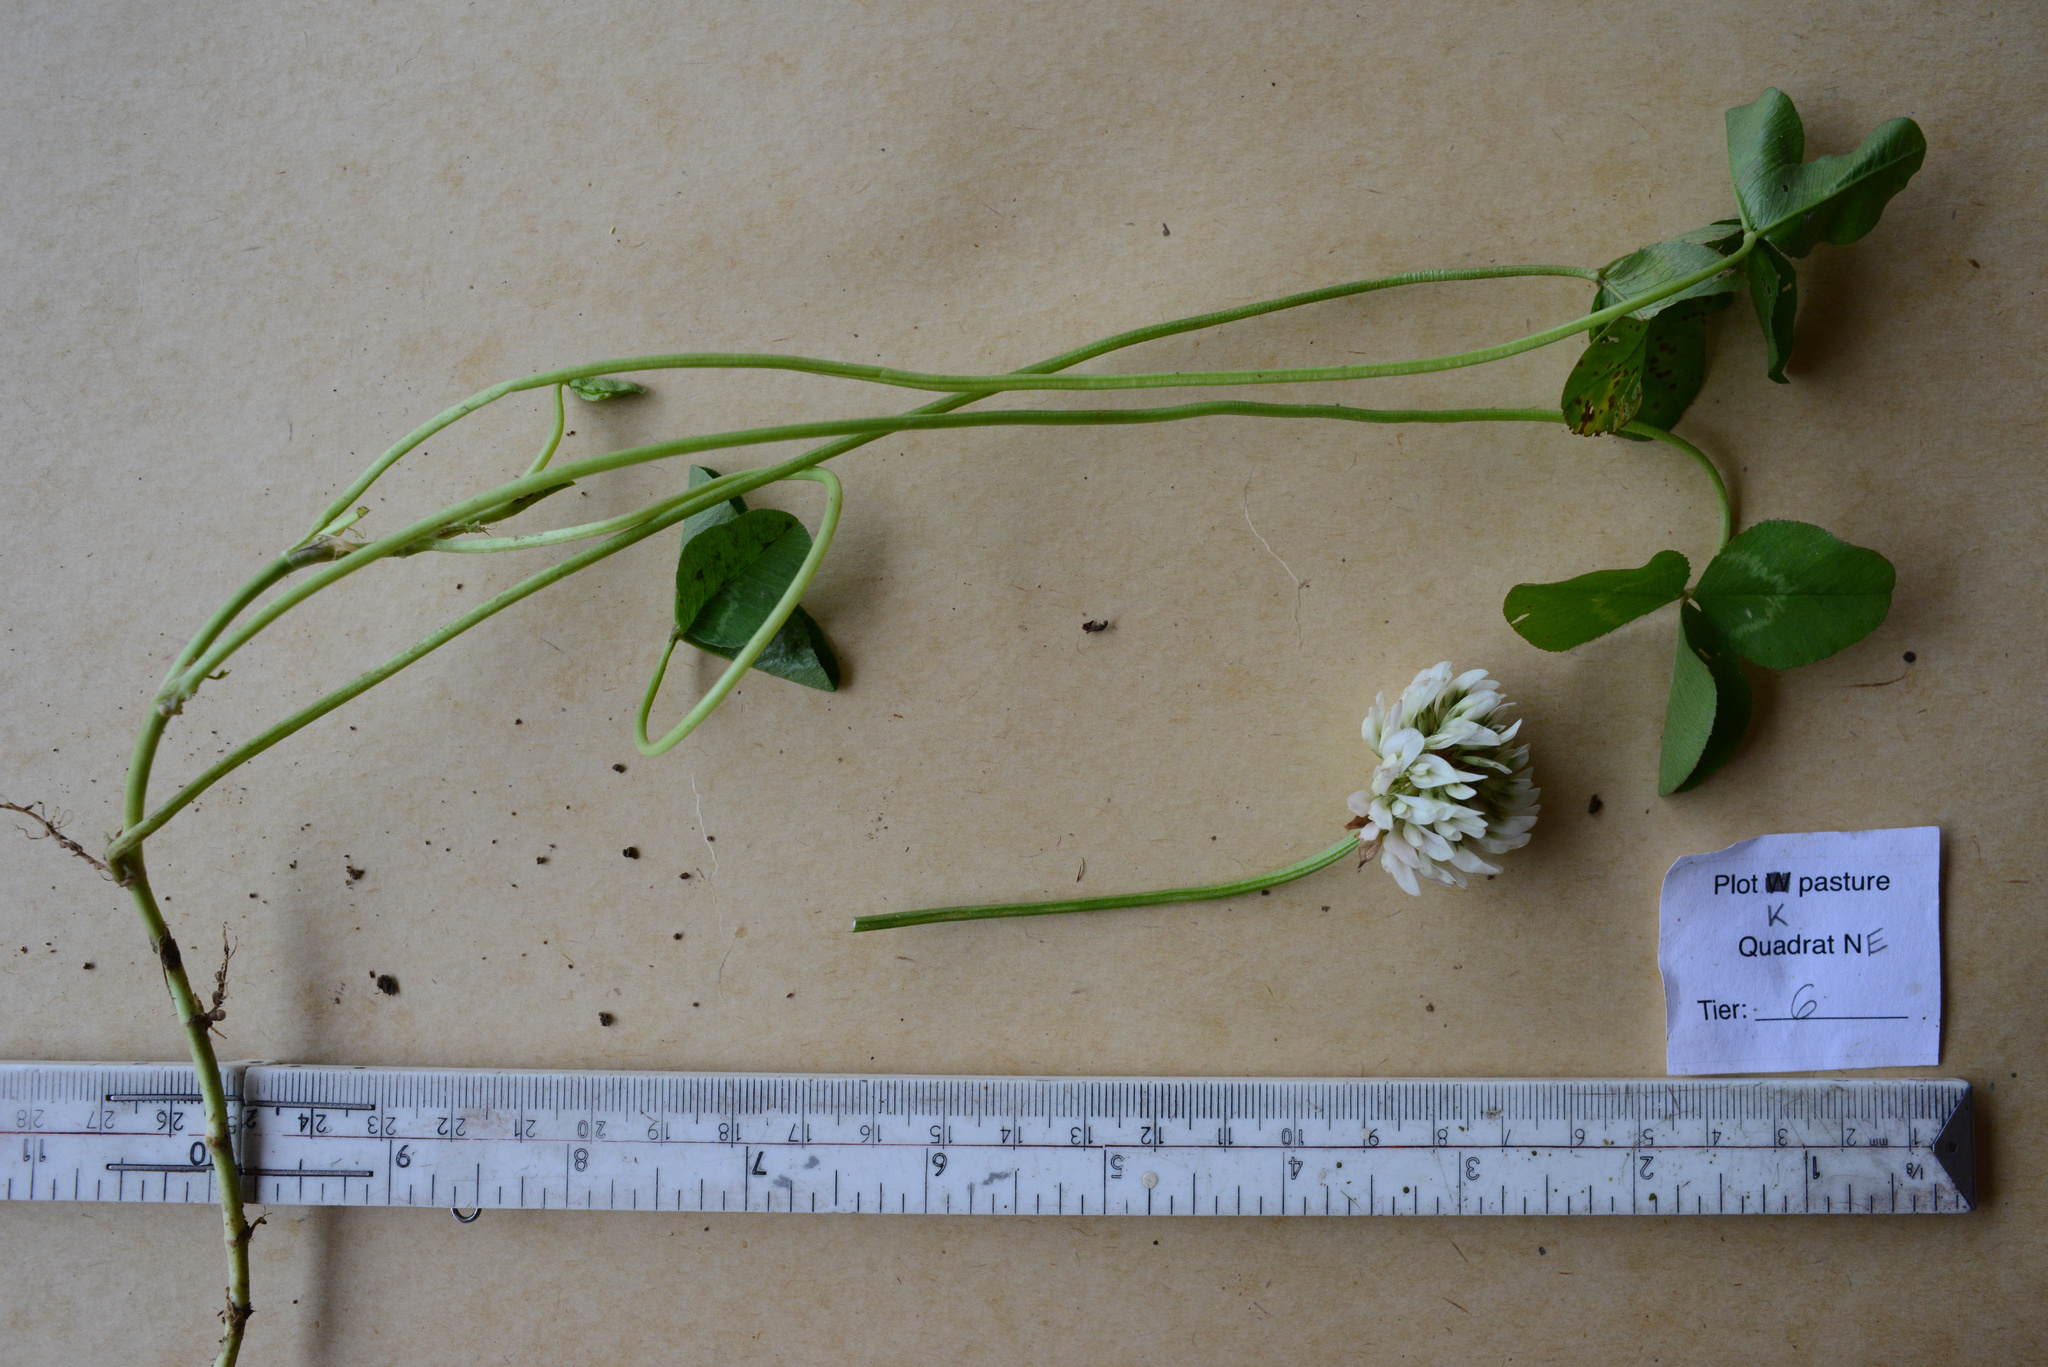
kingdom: Plantae
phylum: Tracheophyta
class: Magnoliopsida
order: Fabales
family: Fabaceae
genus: Trifolium
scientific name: Trifolium repens
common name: White clover
